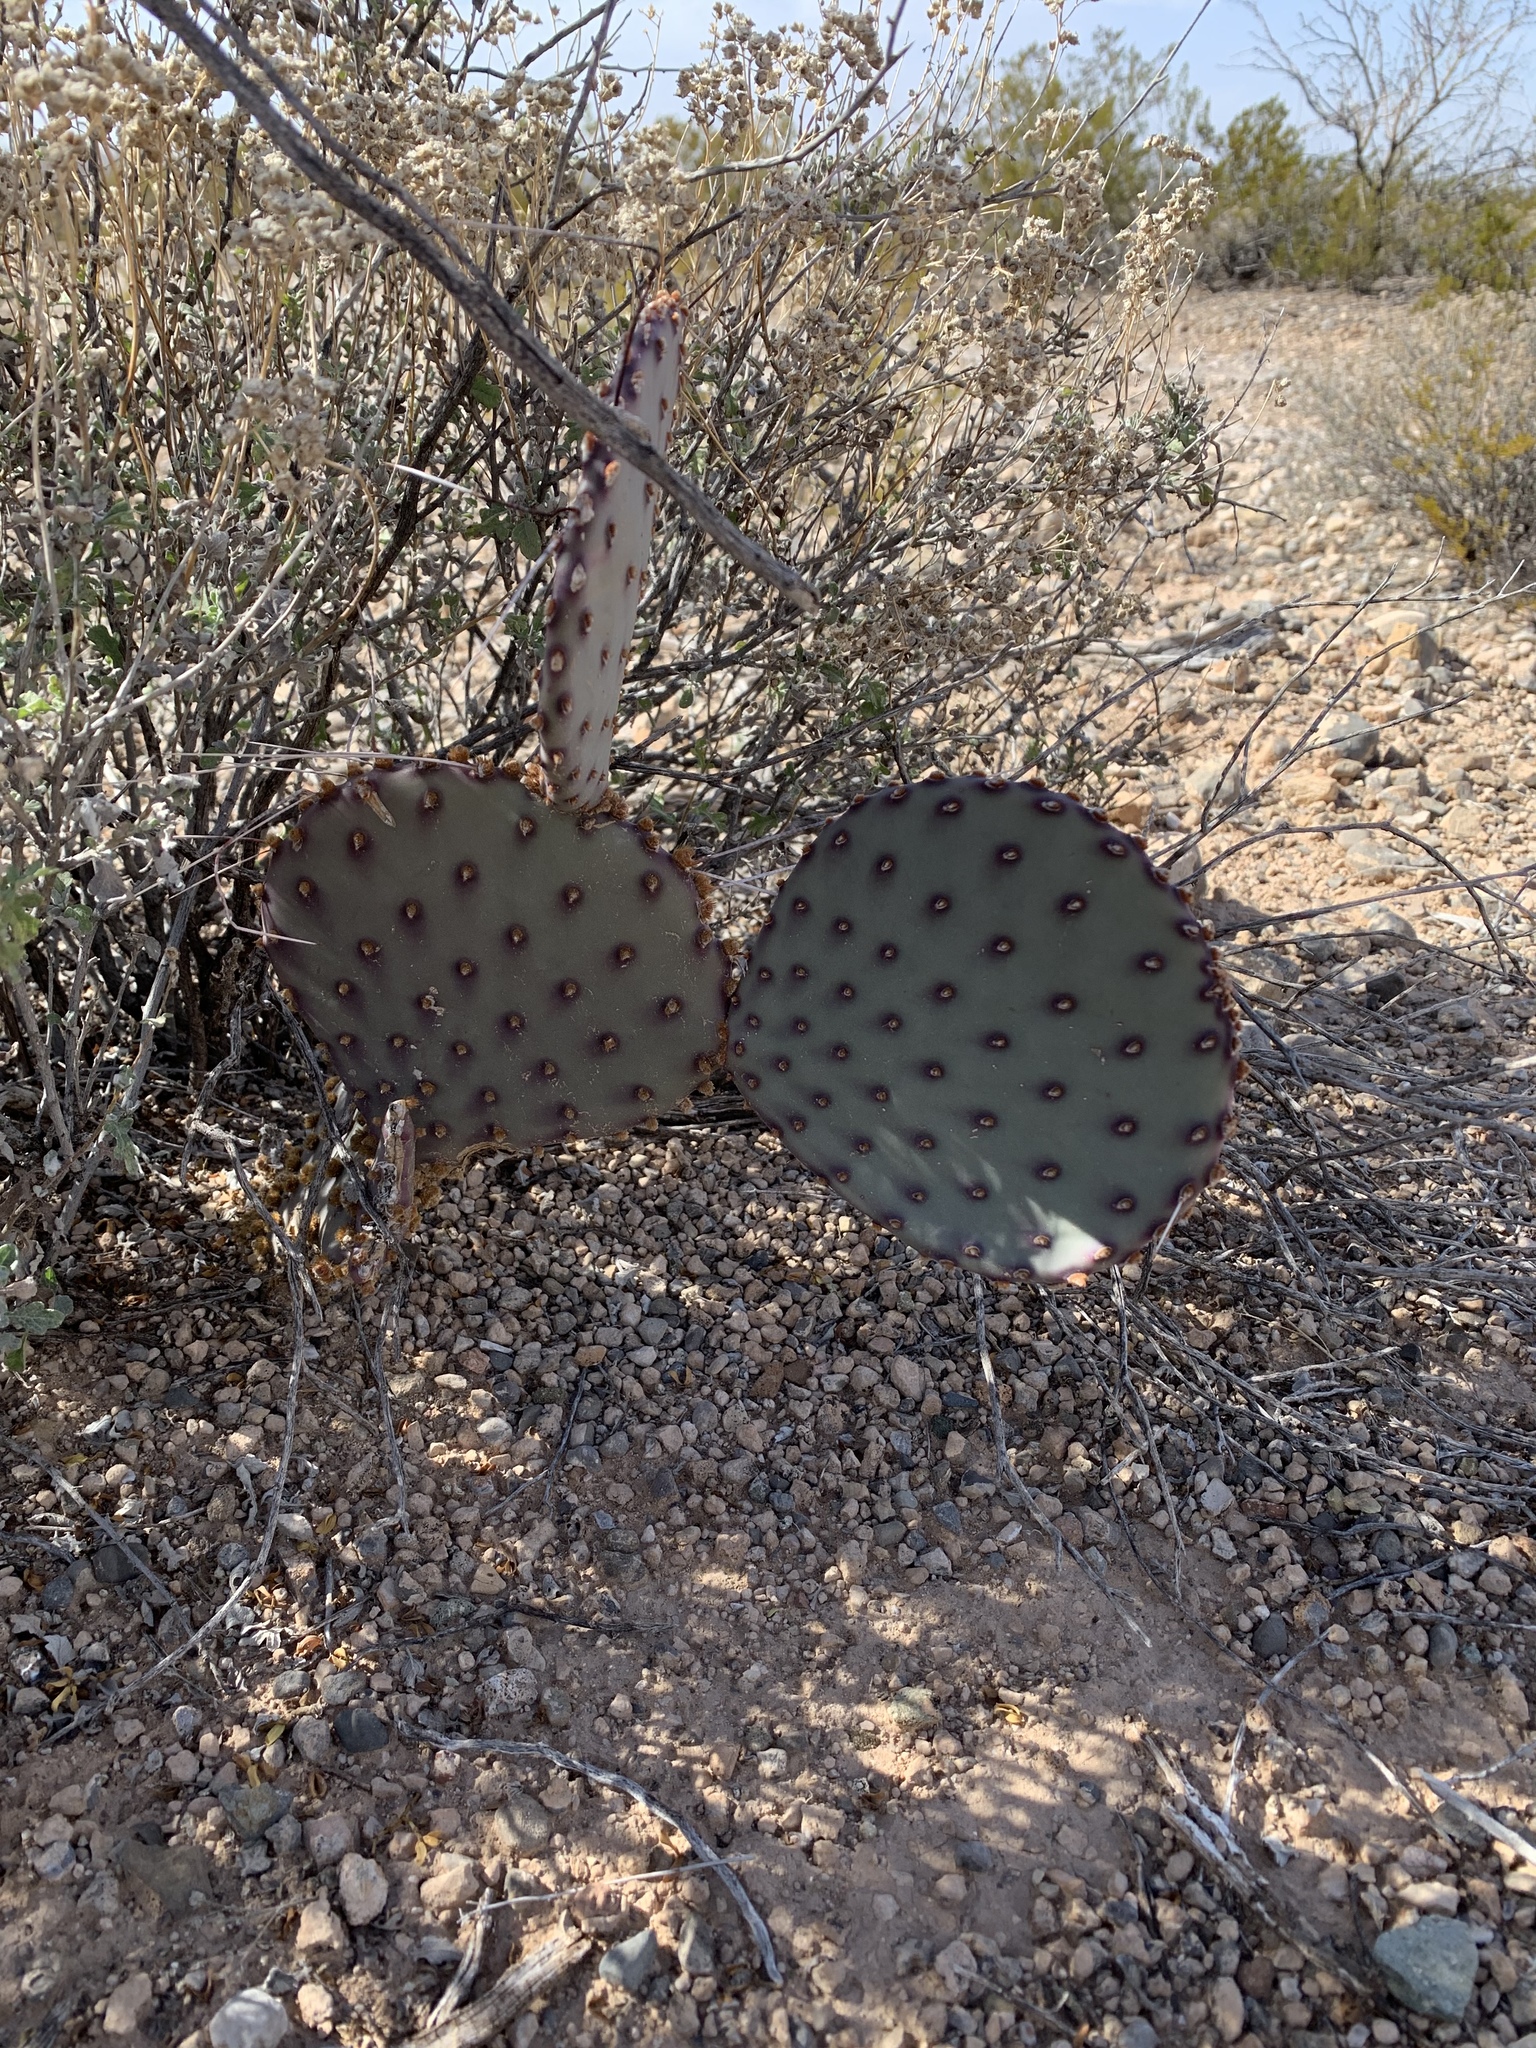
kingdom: Plantae
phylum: Tracheophyta
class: Magnoliopsida
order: Caryophyllales
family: Cactaceae
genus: Opuntia
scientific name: Opuntia macrocentra
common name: Purple prickly-pear
